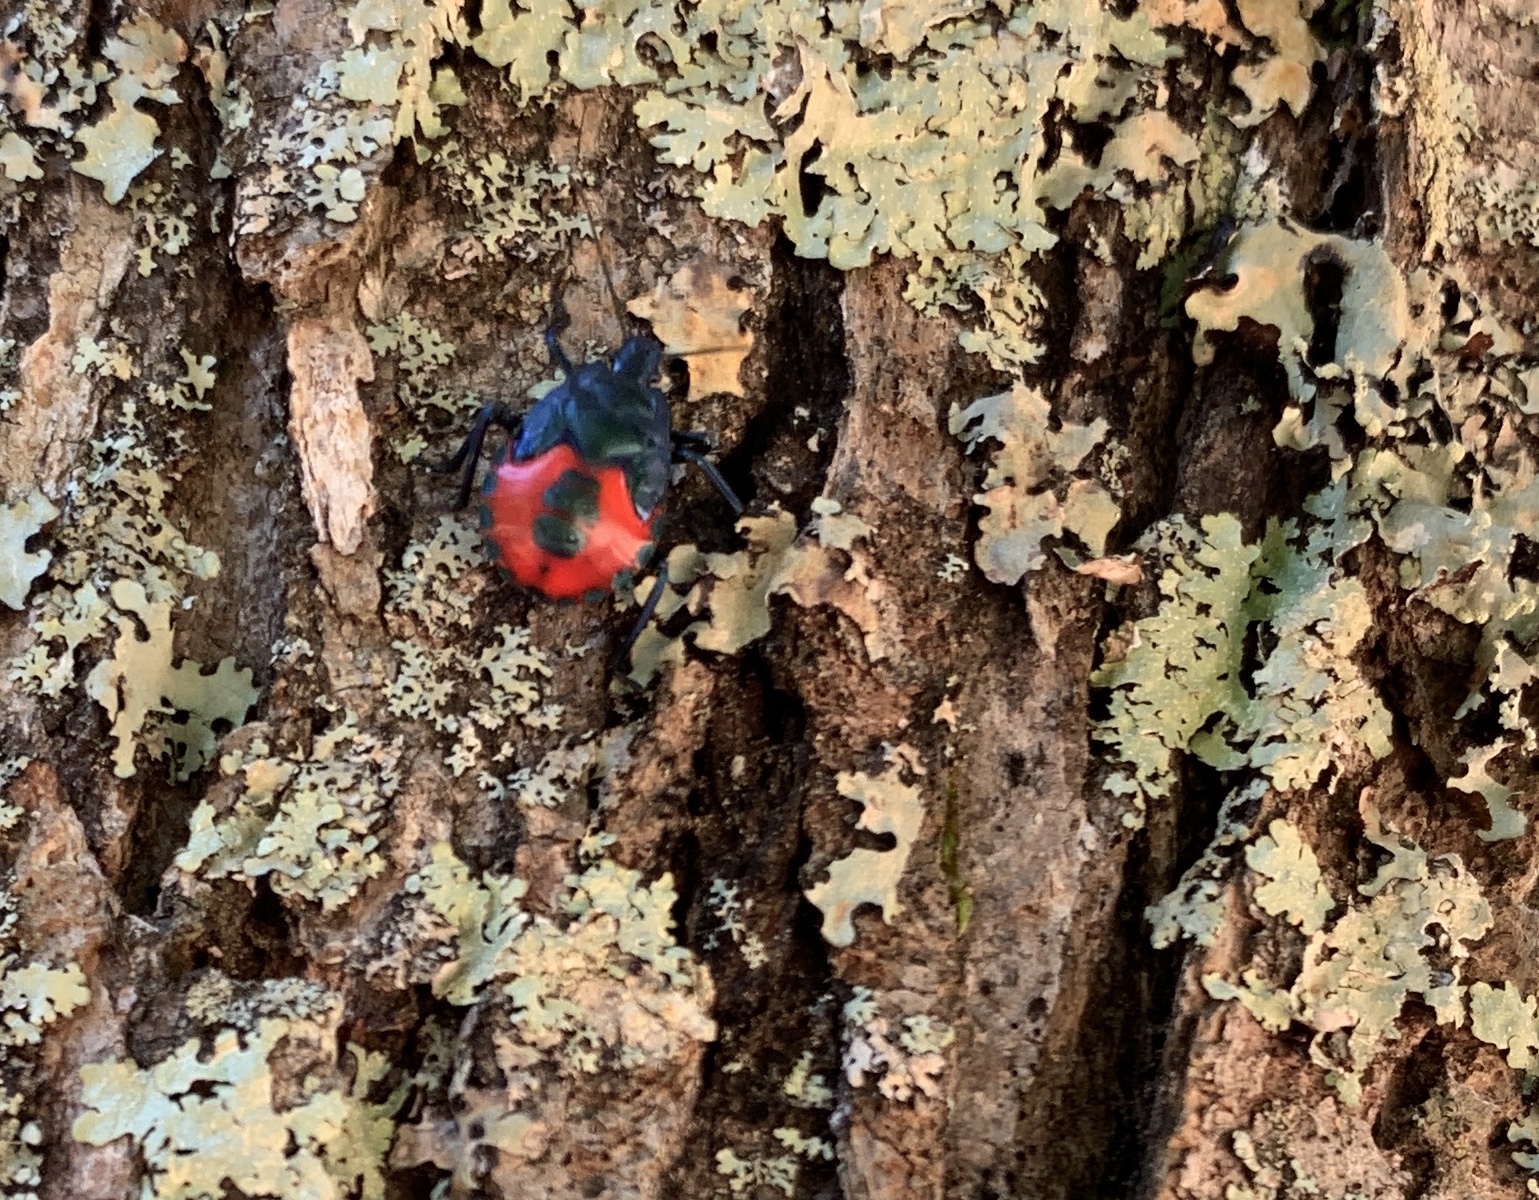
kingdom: Animalia
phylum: Arthropoda
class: Insecta
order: Hemiptera
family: Pentatomidae
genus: Euthyrhynchus
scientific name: Euthyrhynchus floridanus
